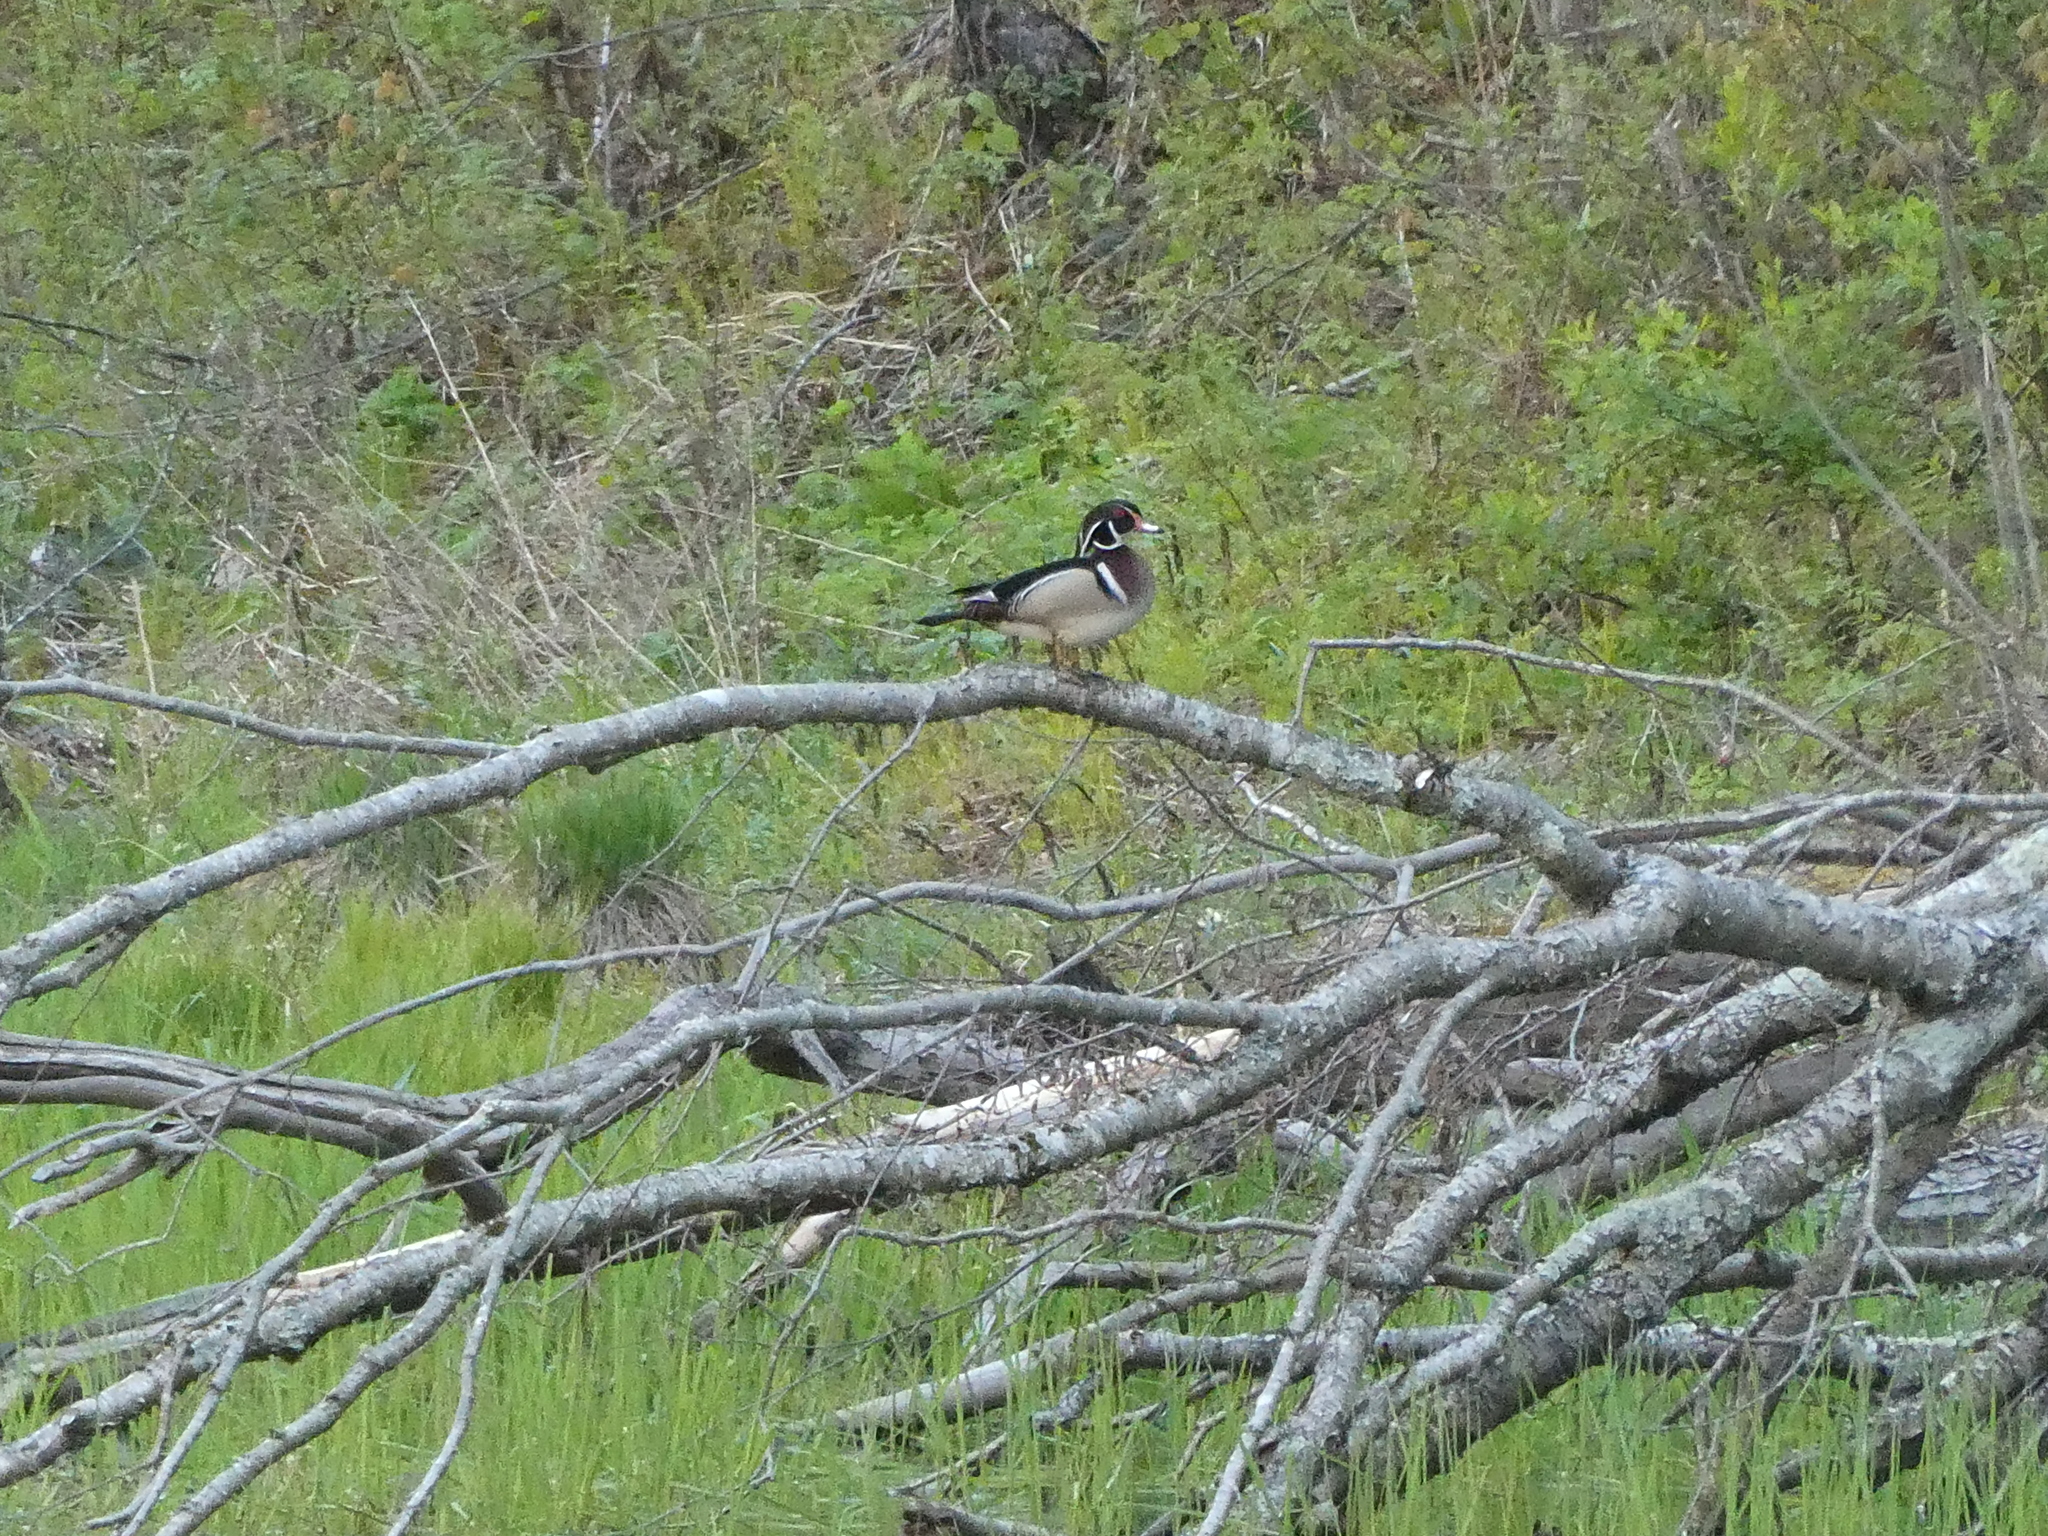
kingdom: Animalia
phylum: Chordata
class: Aves
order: Anseriformes
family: Anatidae
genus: Aix
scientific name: Aix sponsa
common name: Wood duck
